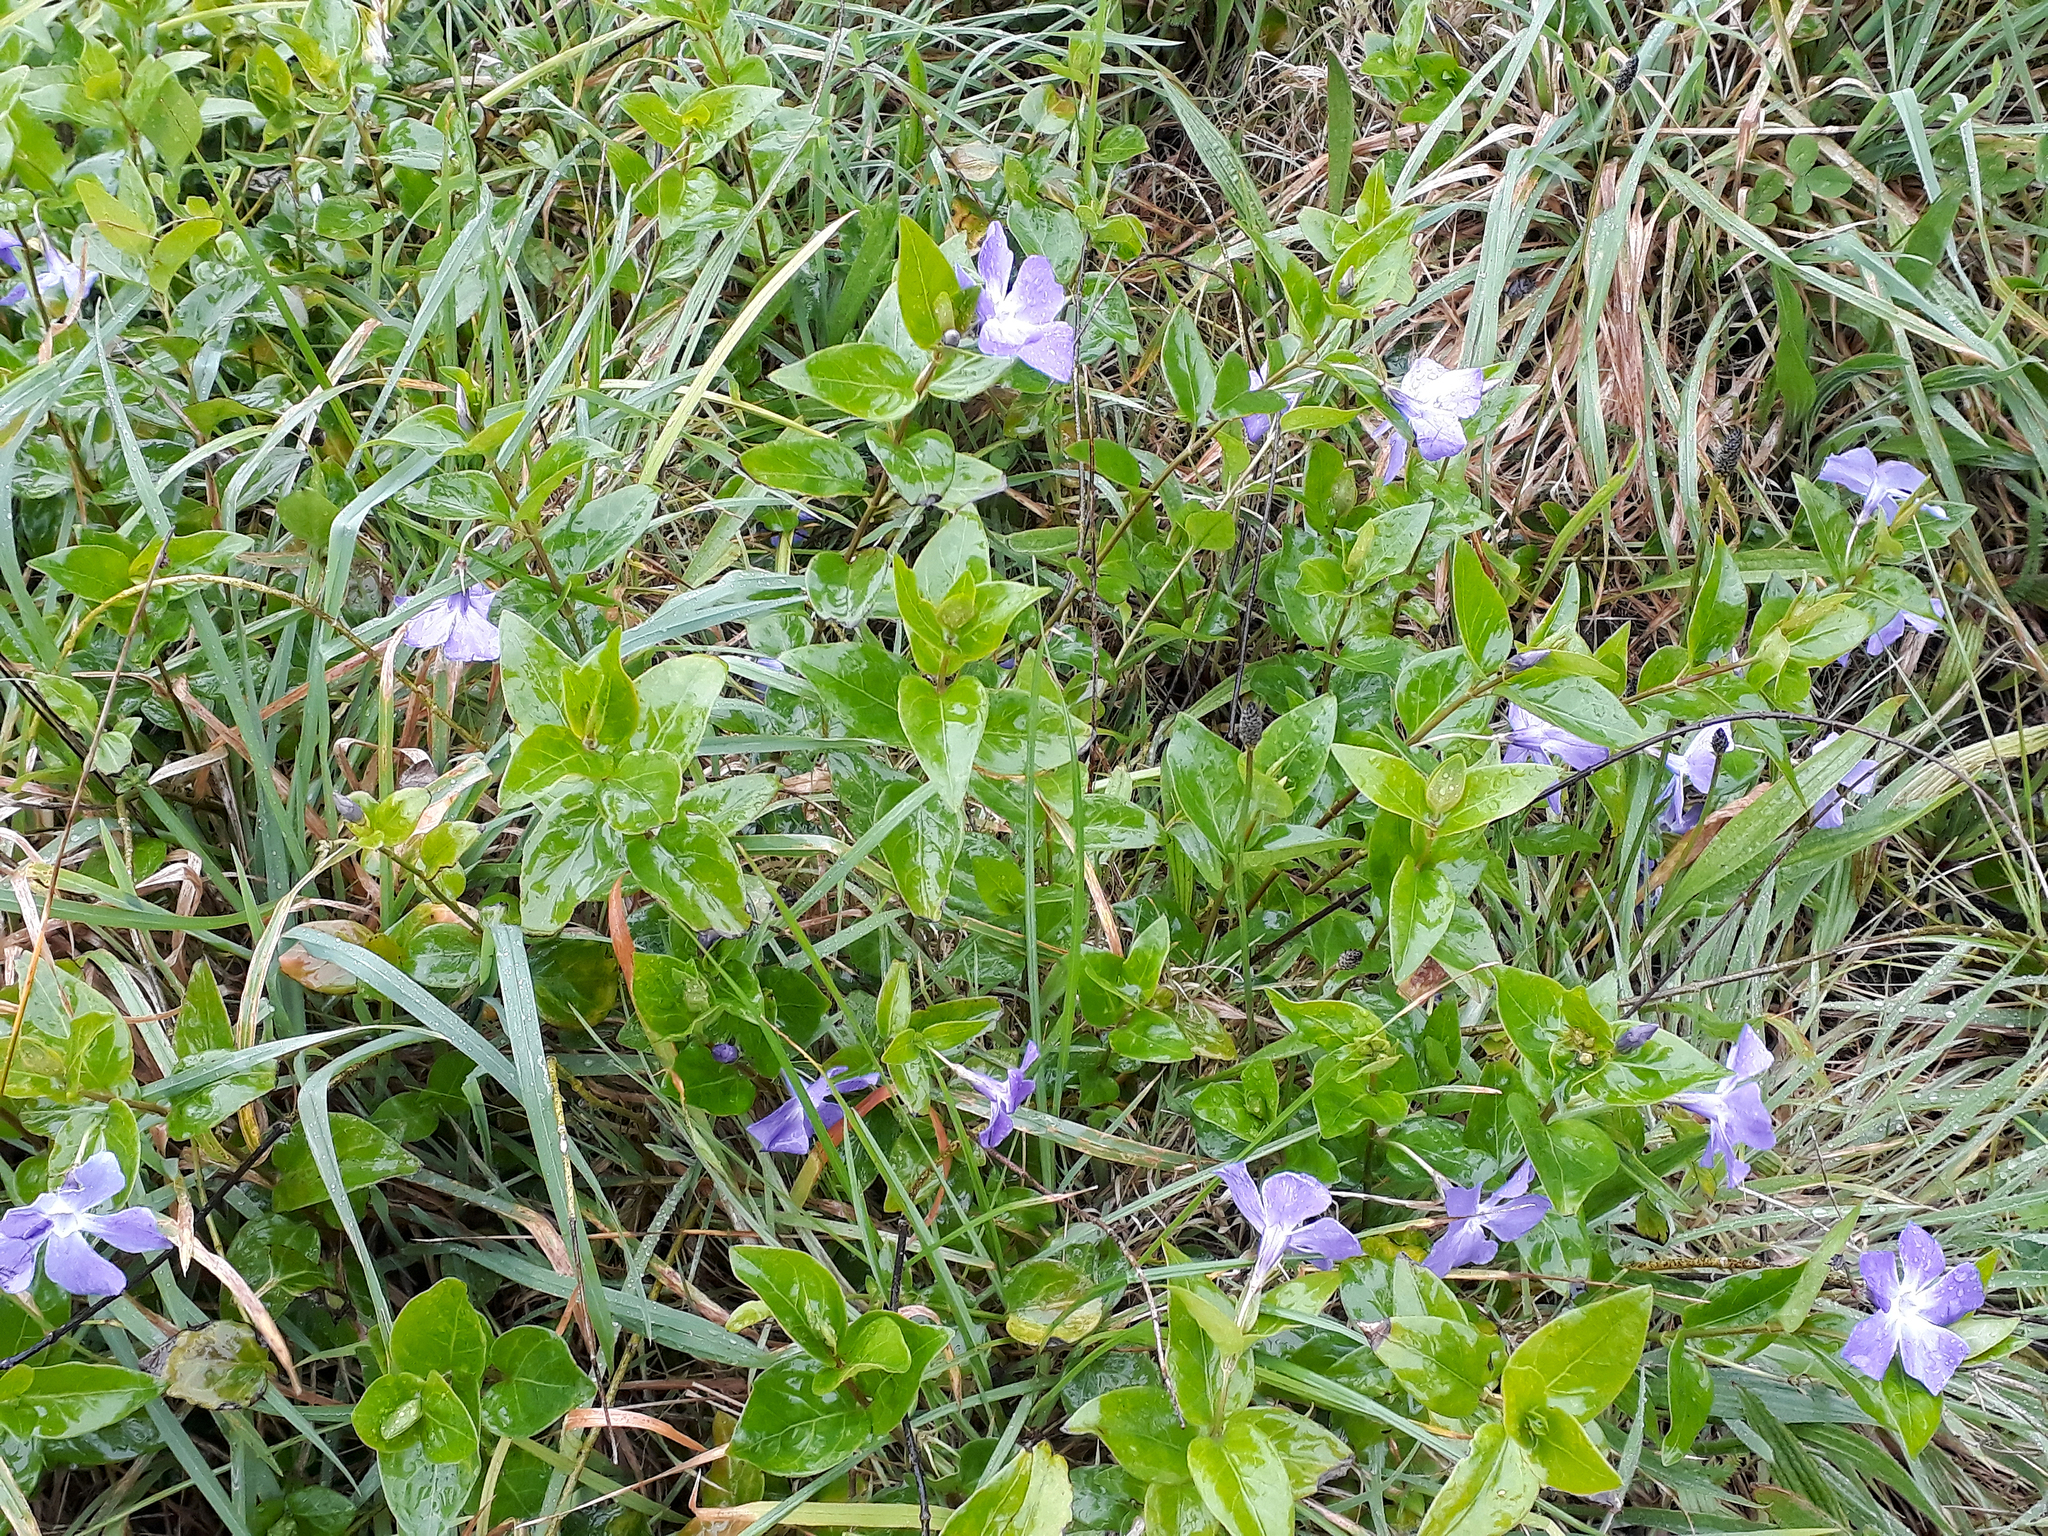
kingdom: Plantae
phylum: Tracheophyta
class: Magnoliopsida
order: Gentianales
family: Apocynaceae
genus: Vinca
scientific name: Vinca major
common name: Greater periwinkle
